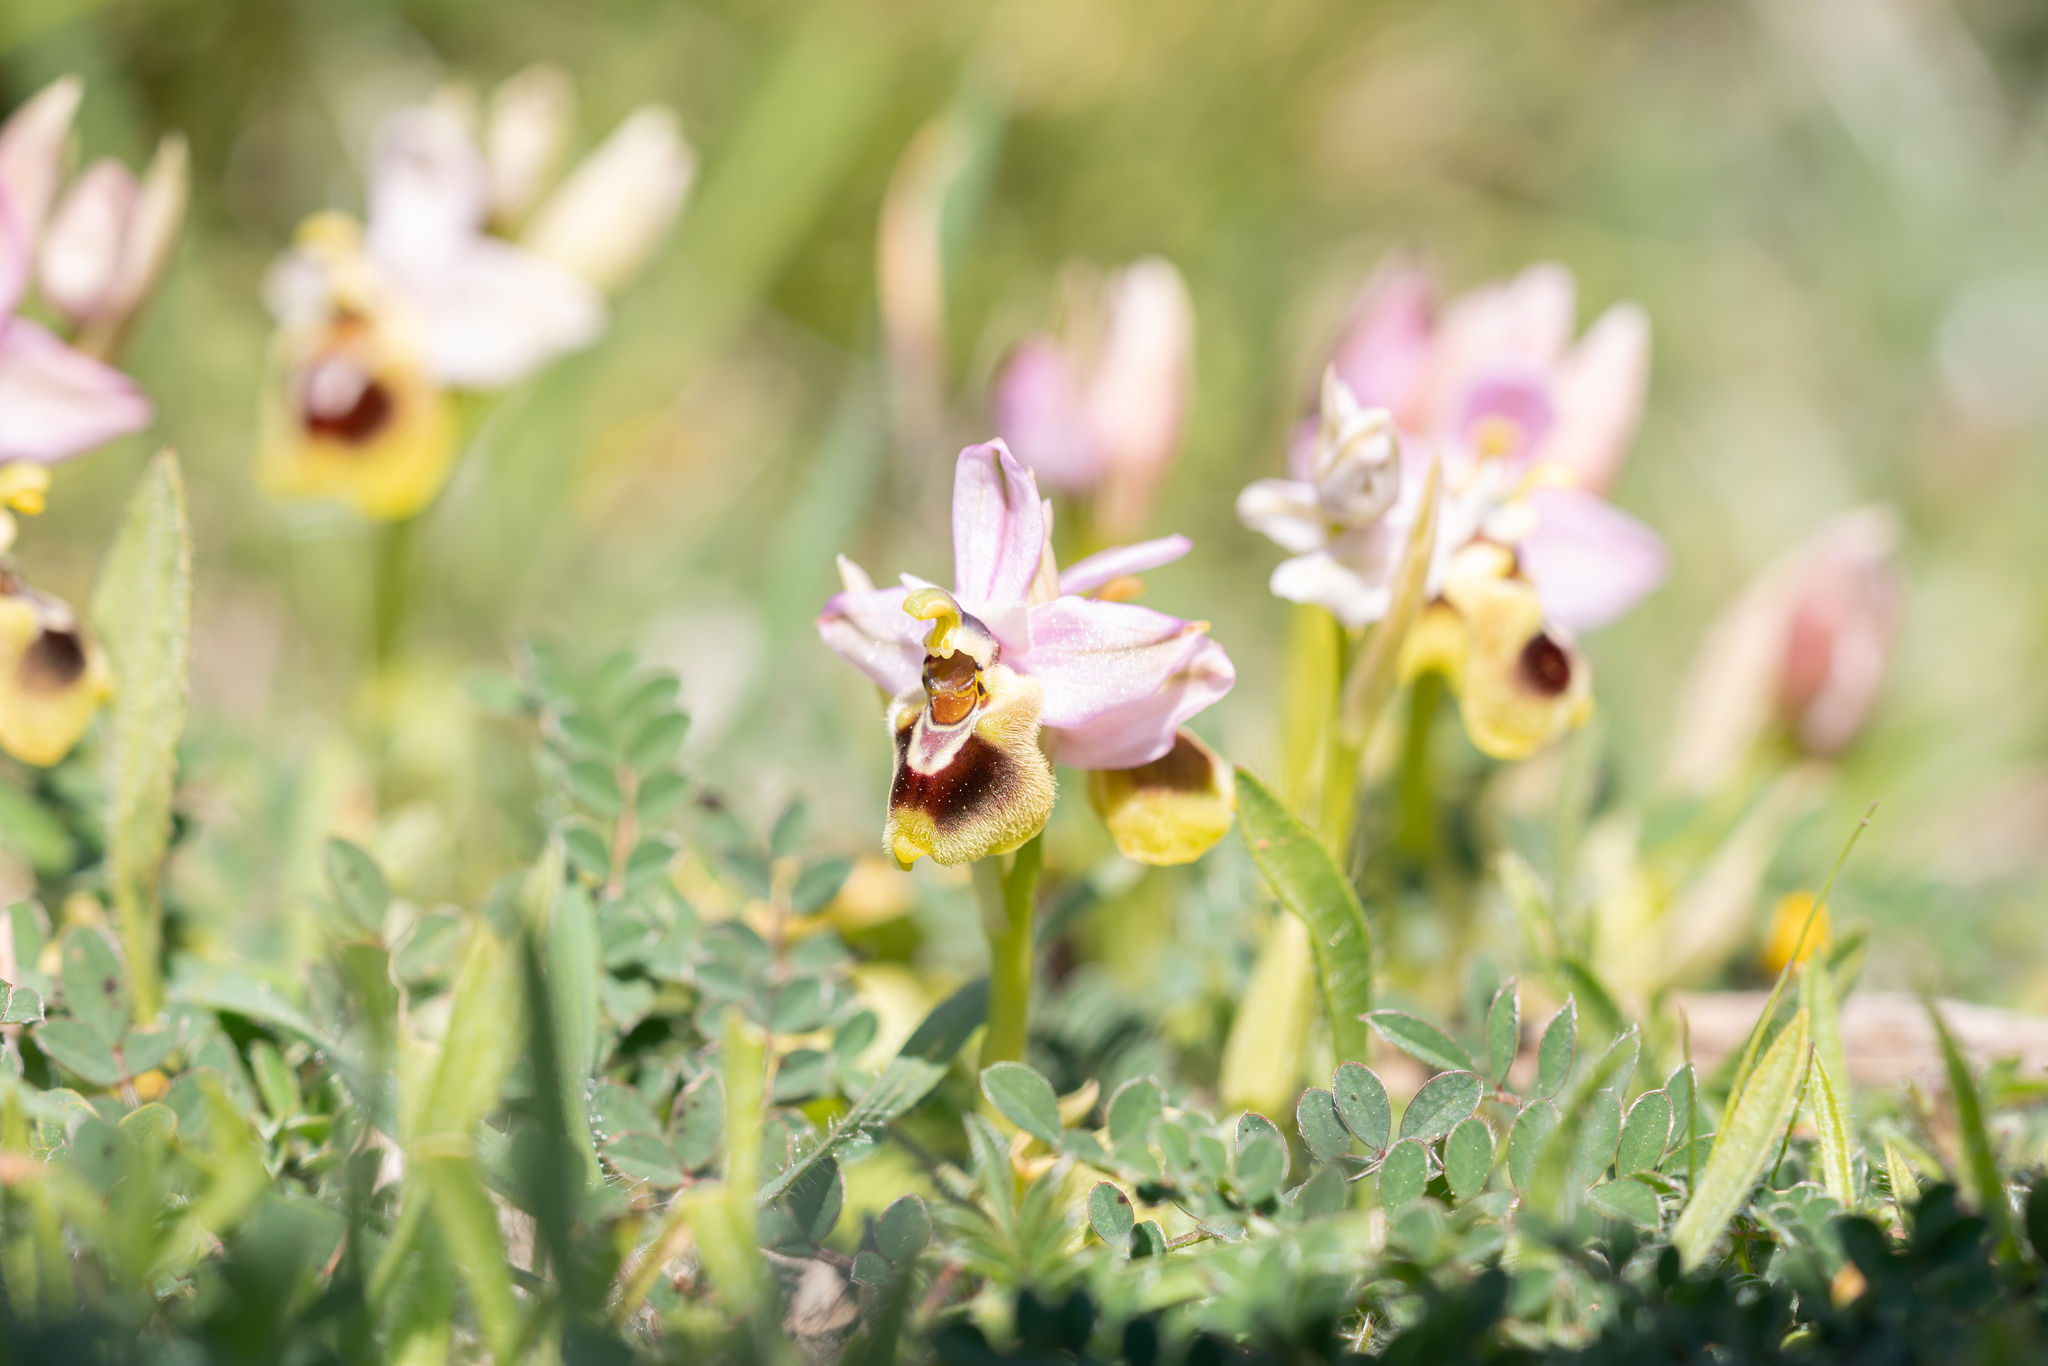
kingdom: Plantae
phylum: Tracheophyta
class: Liliopsida
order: Asparagales
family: Orchidaceae
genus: Ophrys
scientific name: Ophrys tenthredinifera
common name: Sawfly orchid
